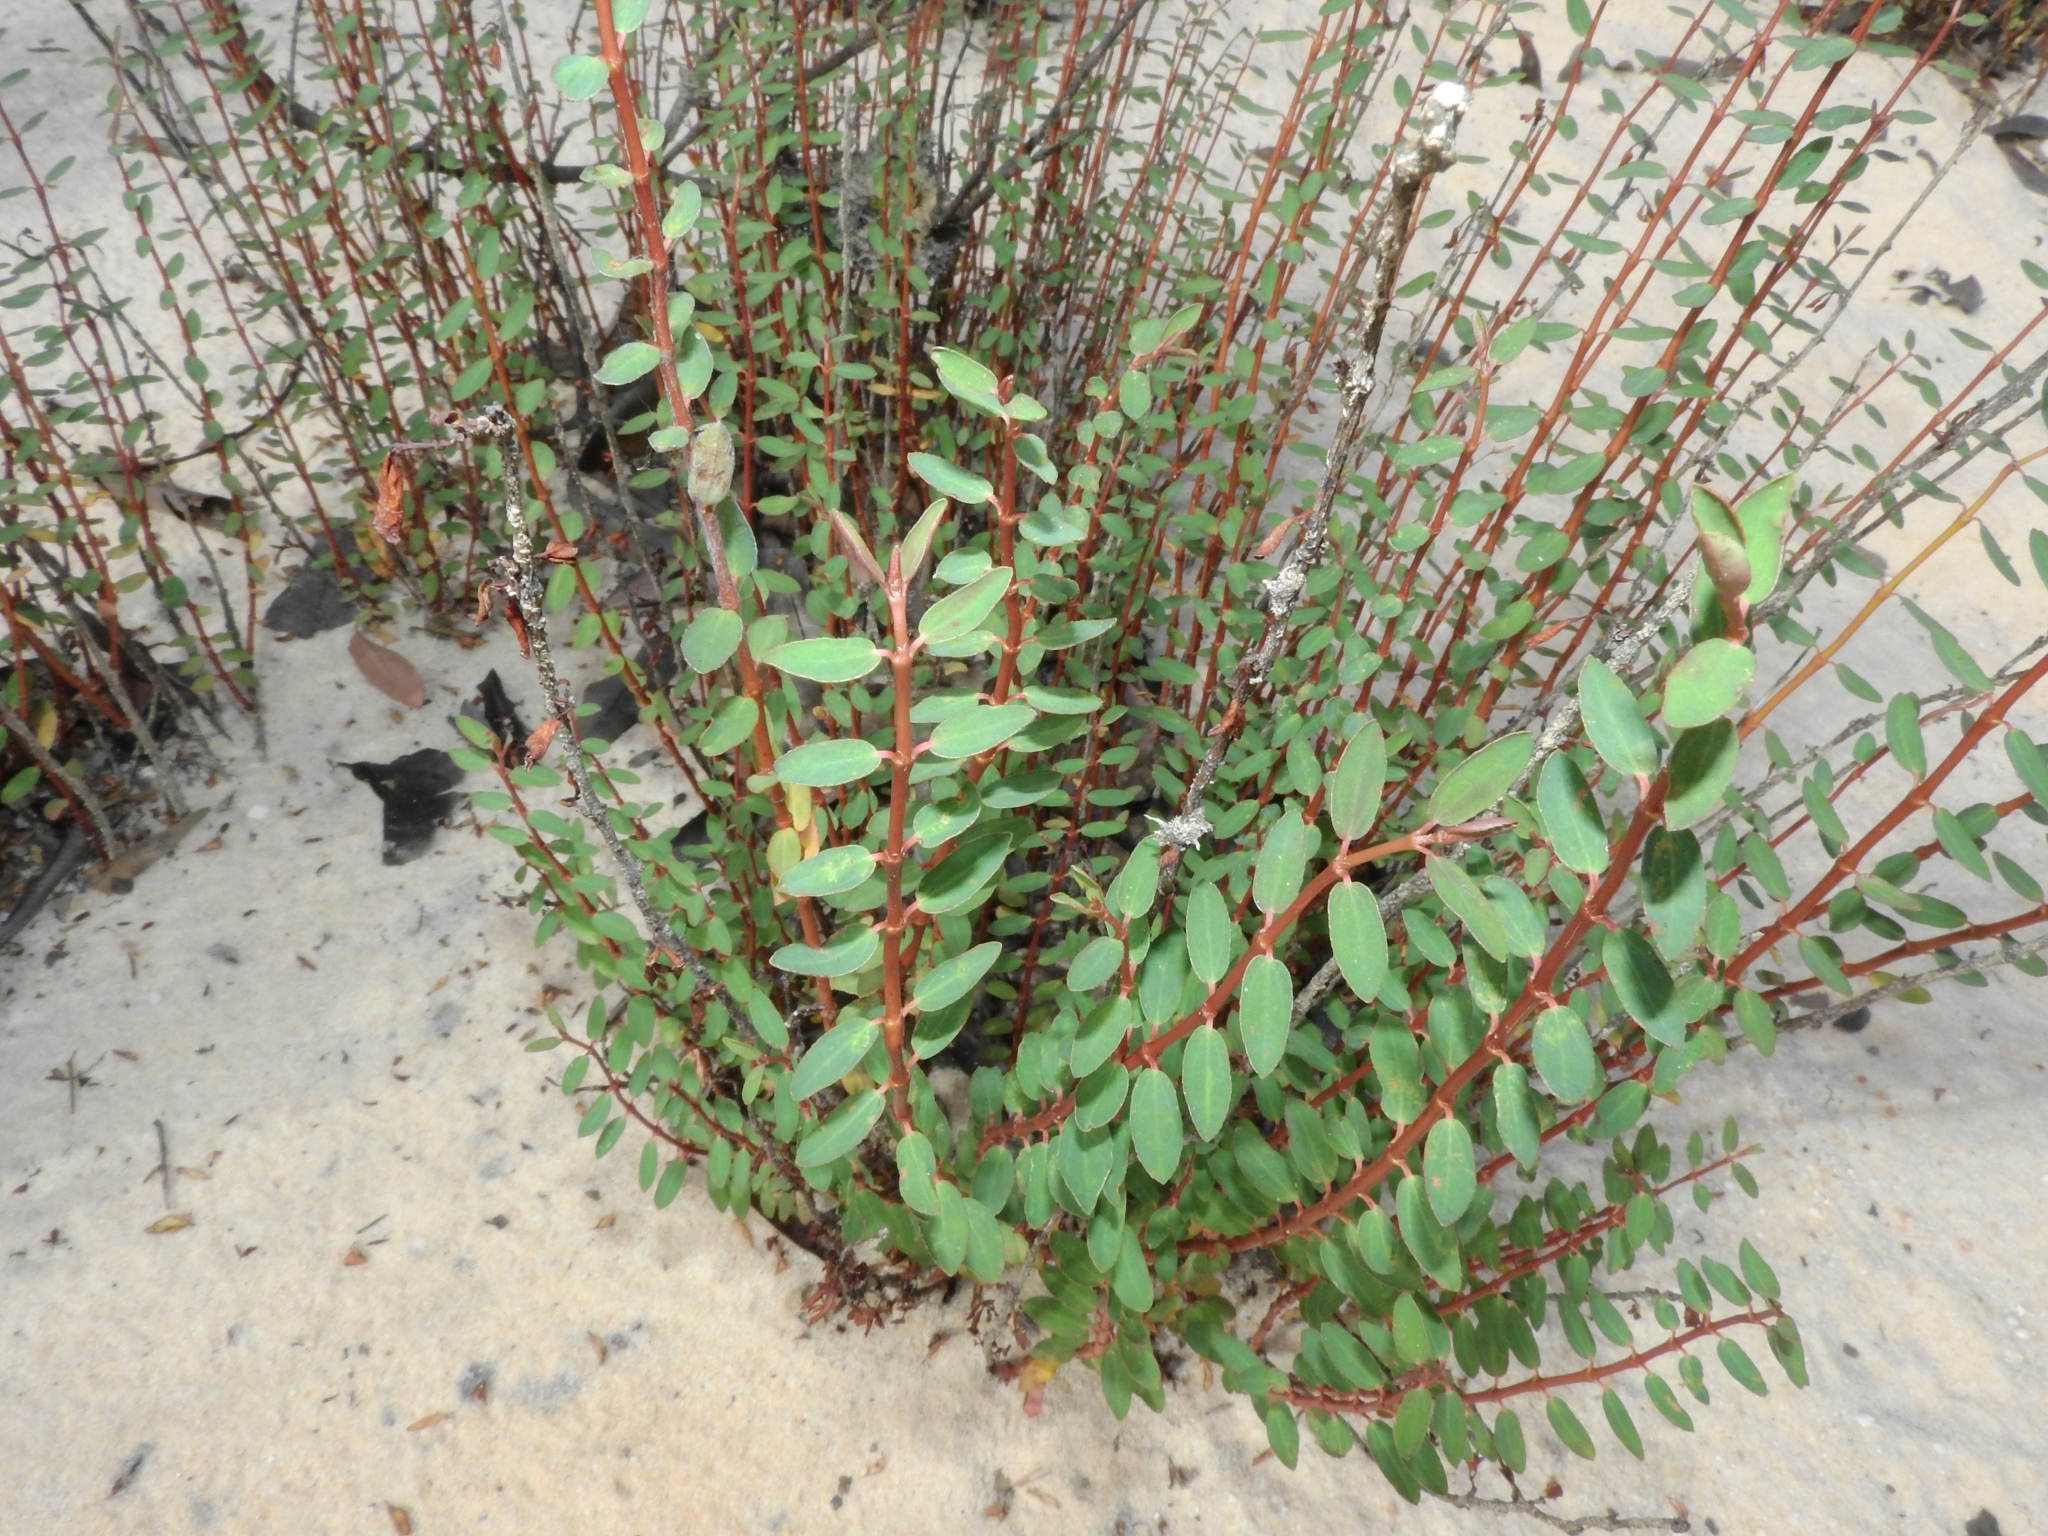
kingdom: Plantae
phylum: Tracheophyta
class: Magnoliopsida
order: Malpighiales
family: Euphorbiaceae
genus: Euphorbia
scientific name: Euphorbia duckei
